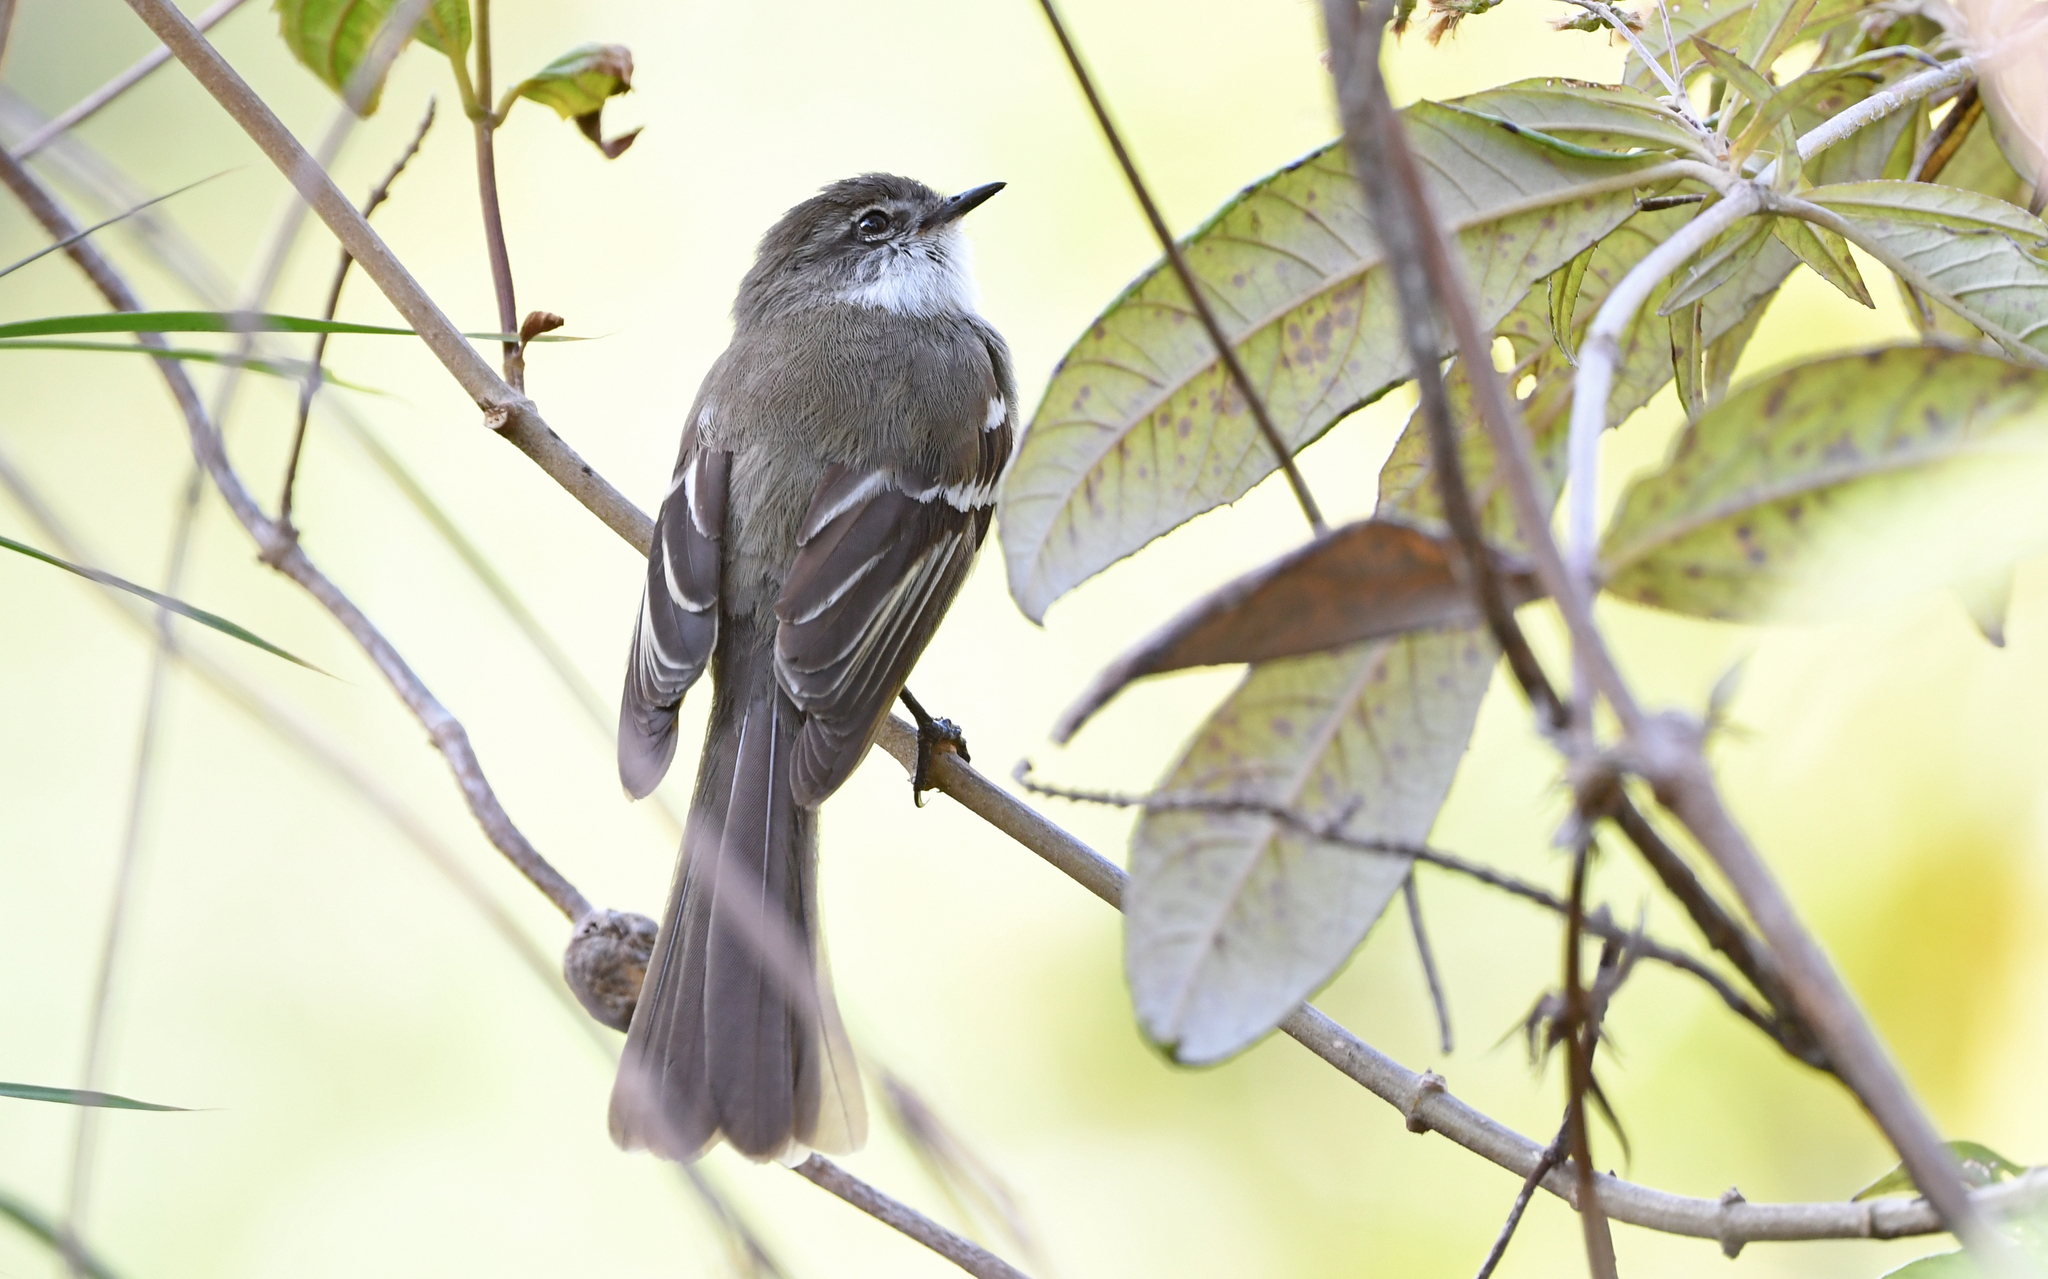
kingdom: Animalia
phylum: Chordata
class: Aves
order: Passeriformes
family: Tyrannidae
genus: Mecocerculus
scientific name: Mecocerculus leucophrys
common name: White-throated tyrannulet
